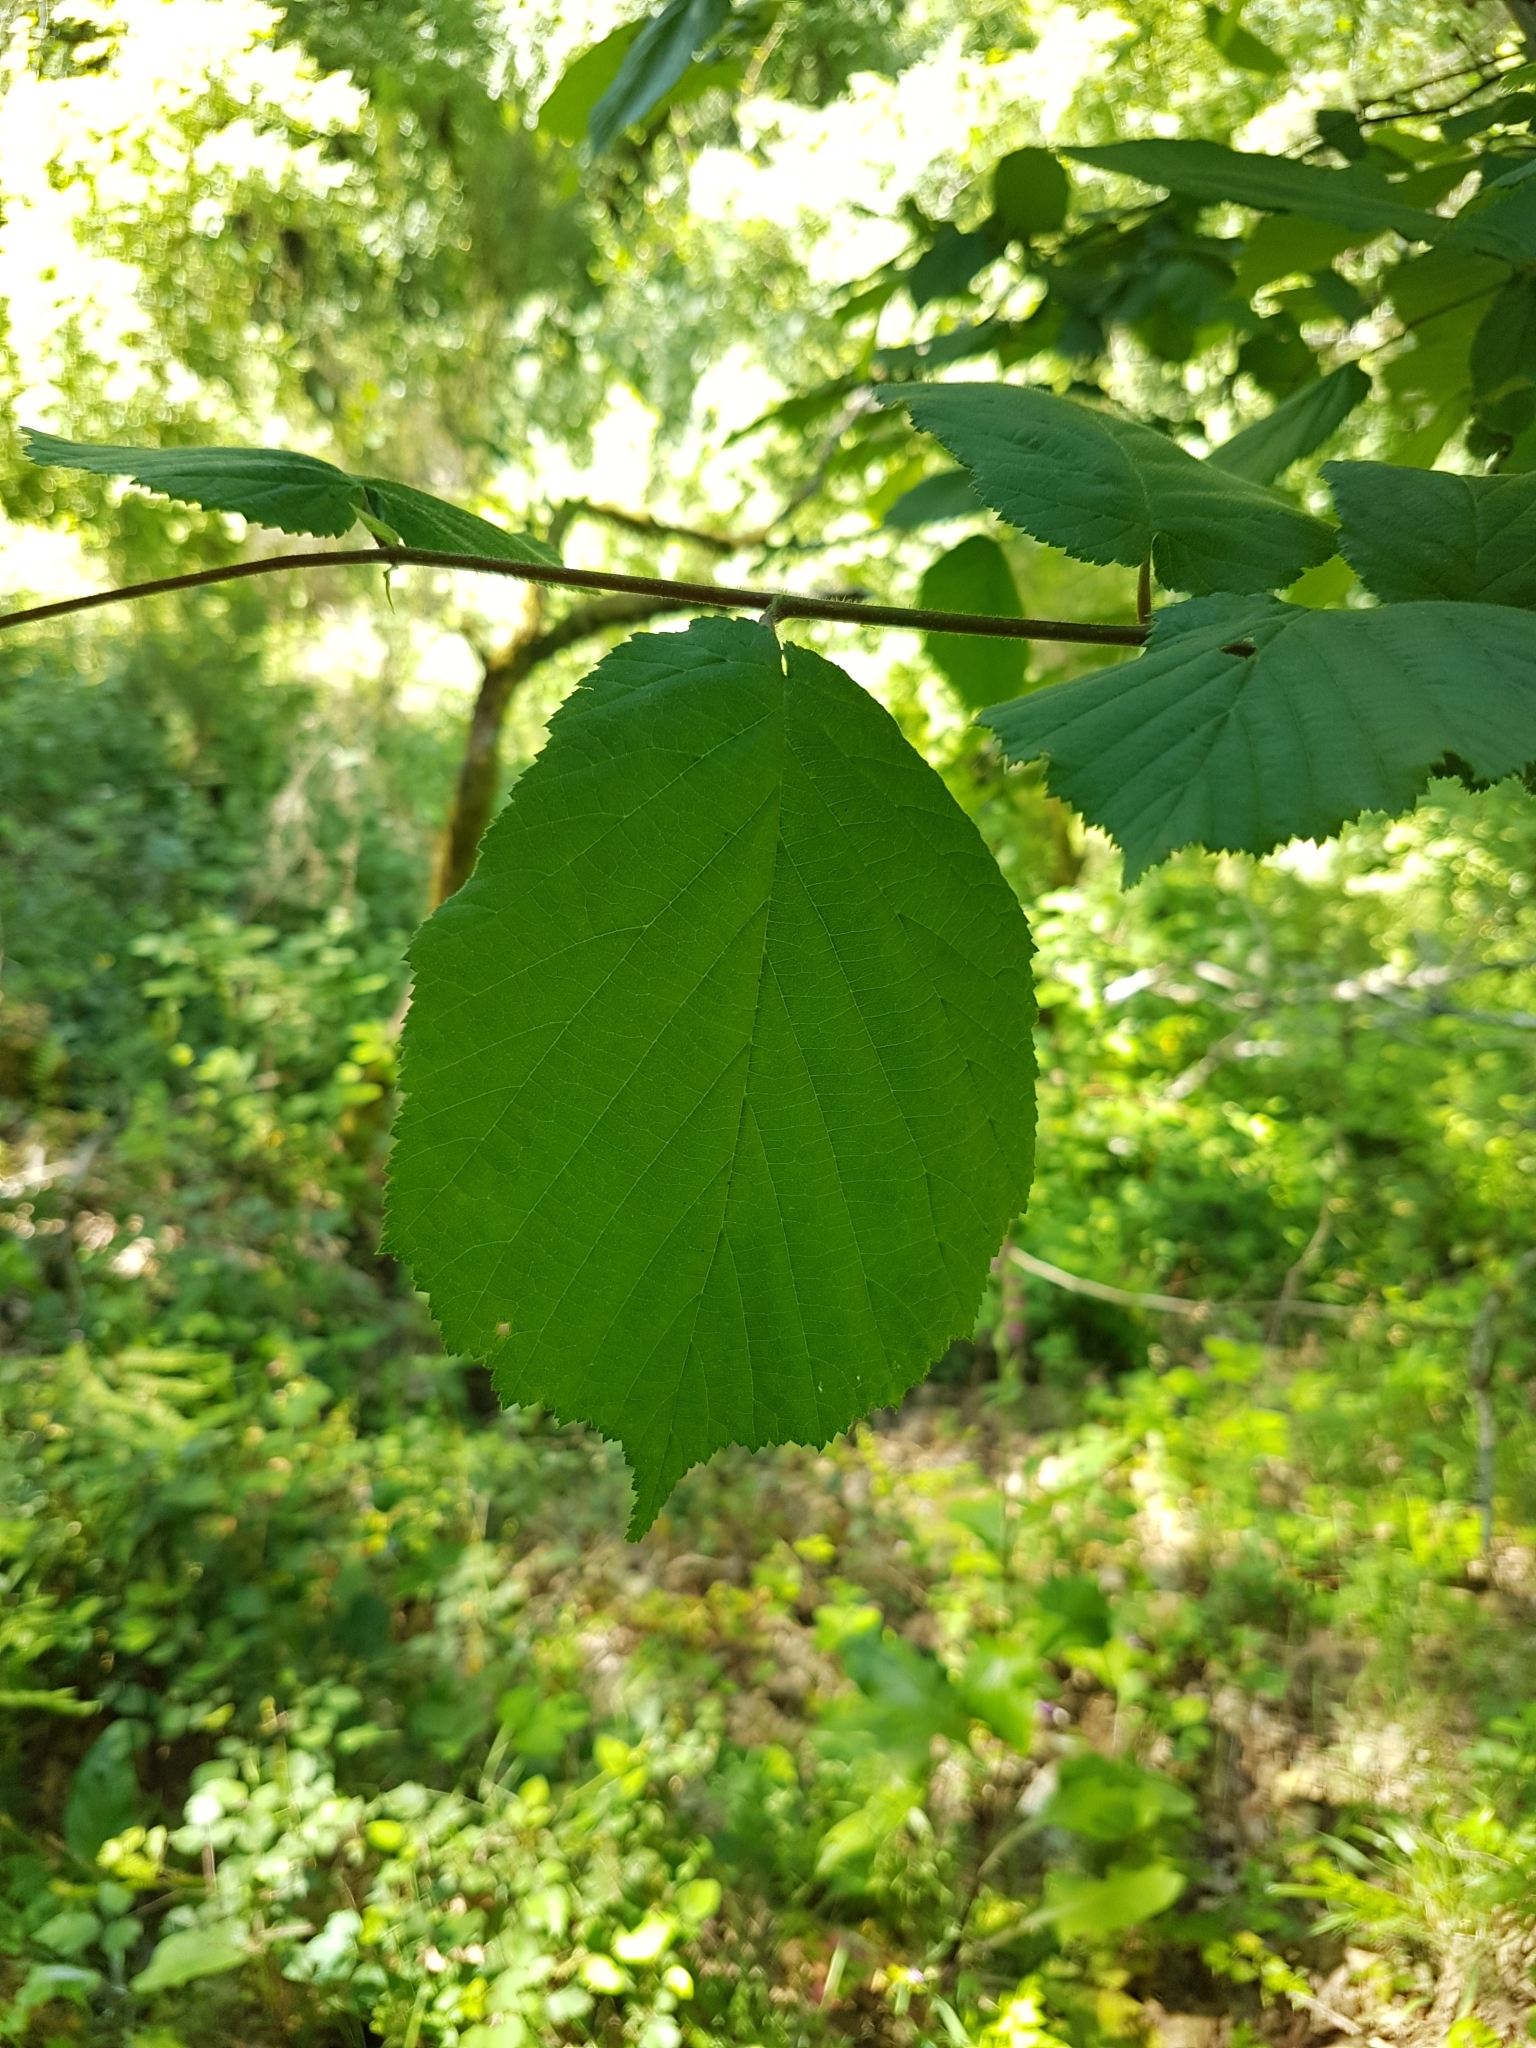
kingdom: Plantae
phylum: Tracheophyta
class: Magnoliopsida
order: Fagales
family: Betulaceae
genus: Corylus
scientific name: Corylus avellana
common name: European hazel
